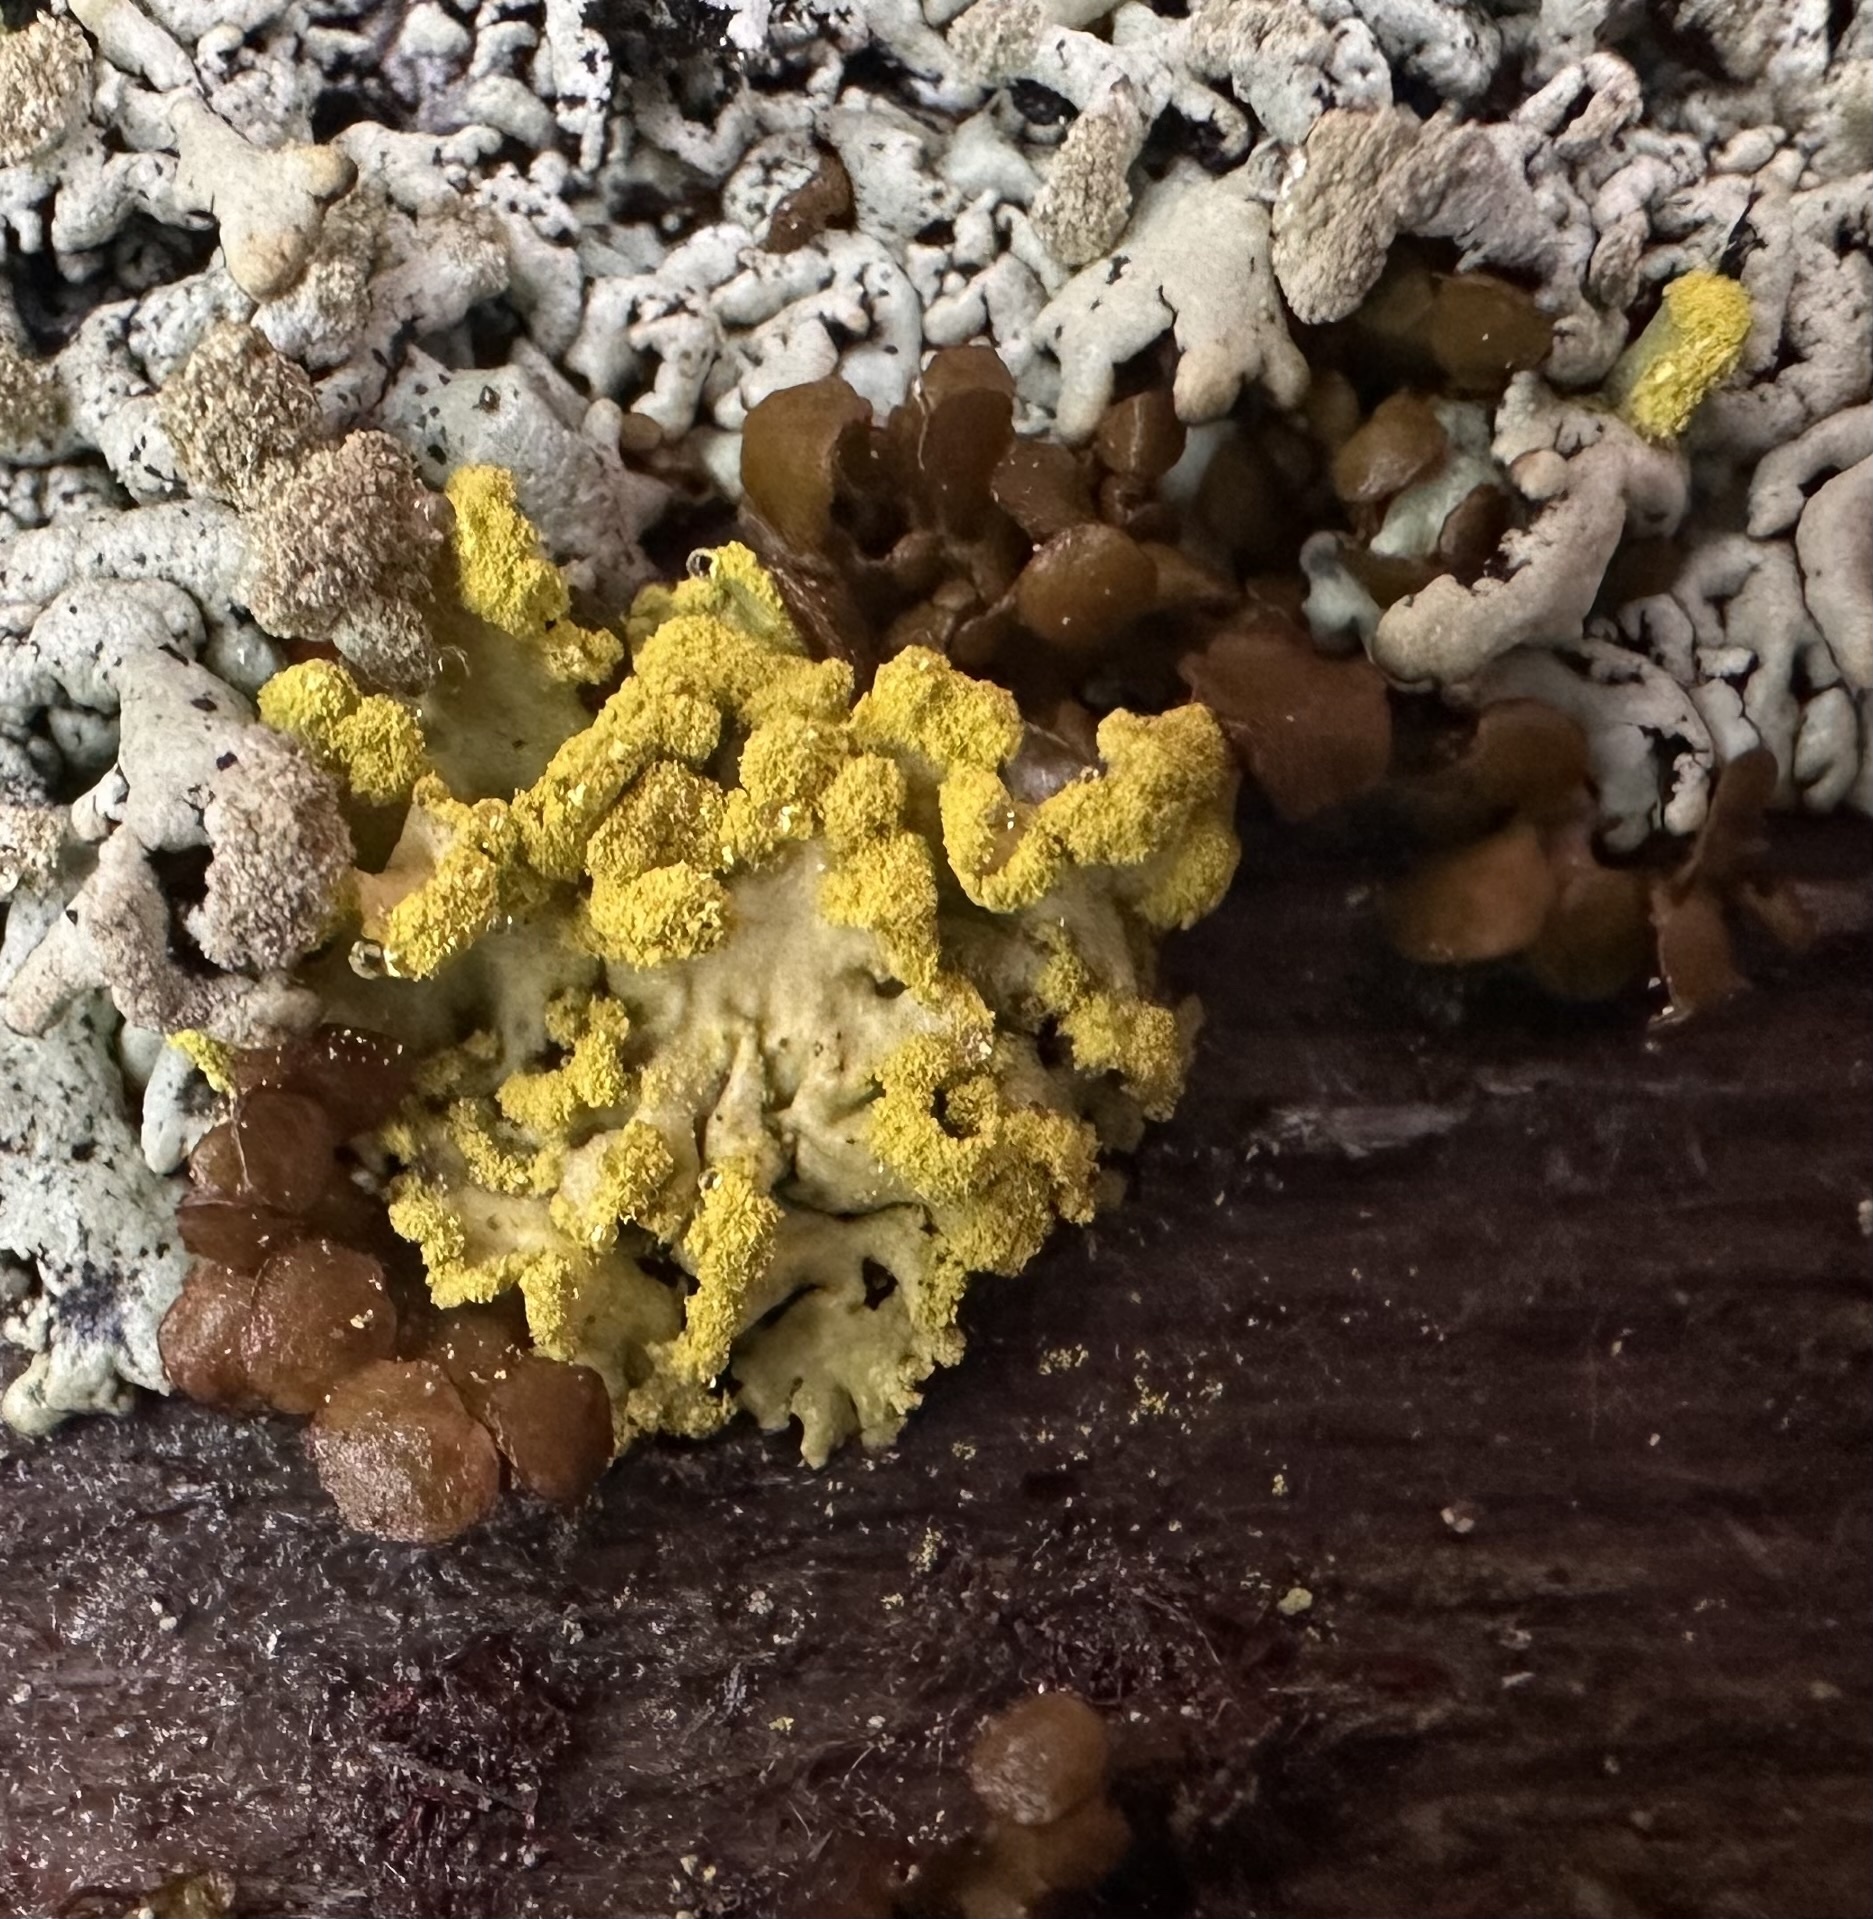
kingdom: Fungi
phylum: Ascomycota
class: Lecanoromycetes
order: Lecanorales
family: Parmeliaceae
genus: Vulpicida
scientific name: Vulpicida pinastri
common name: Powdered sunshine lichen
